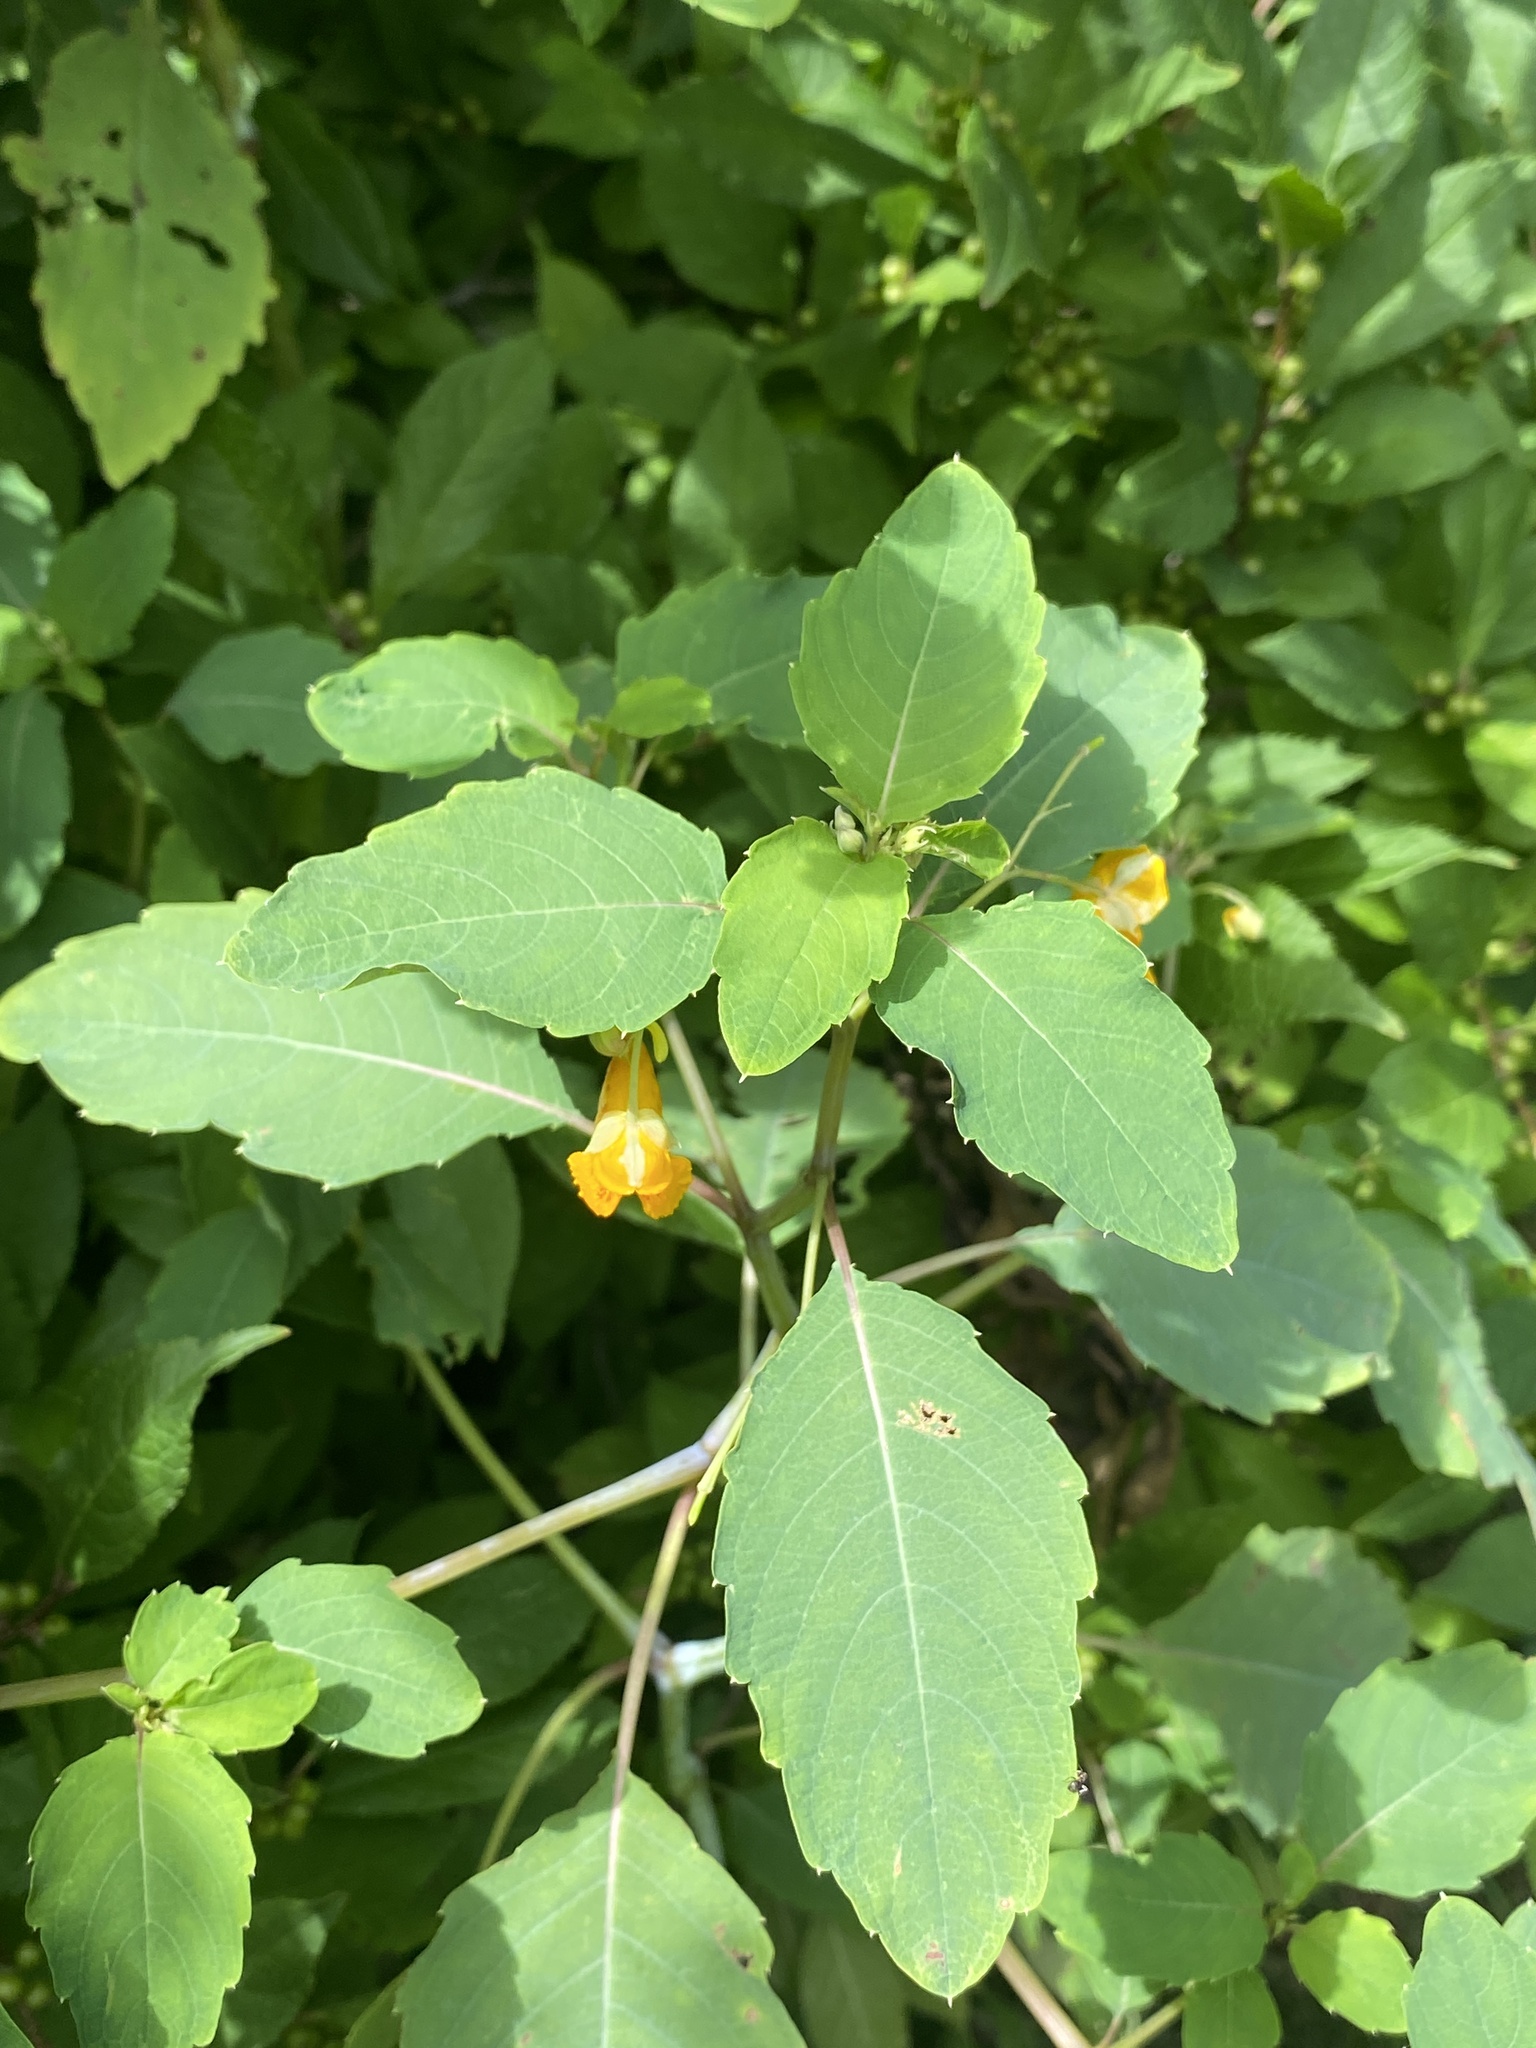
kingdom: Plantae
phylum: Tracheophyta
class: Magnoliopsida
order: Ericales
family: Balsaminaceae
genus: Impatiens
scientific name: Impatiens capensis
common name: Orange balsam
